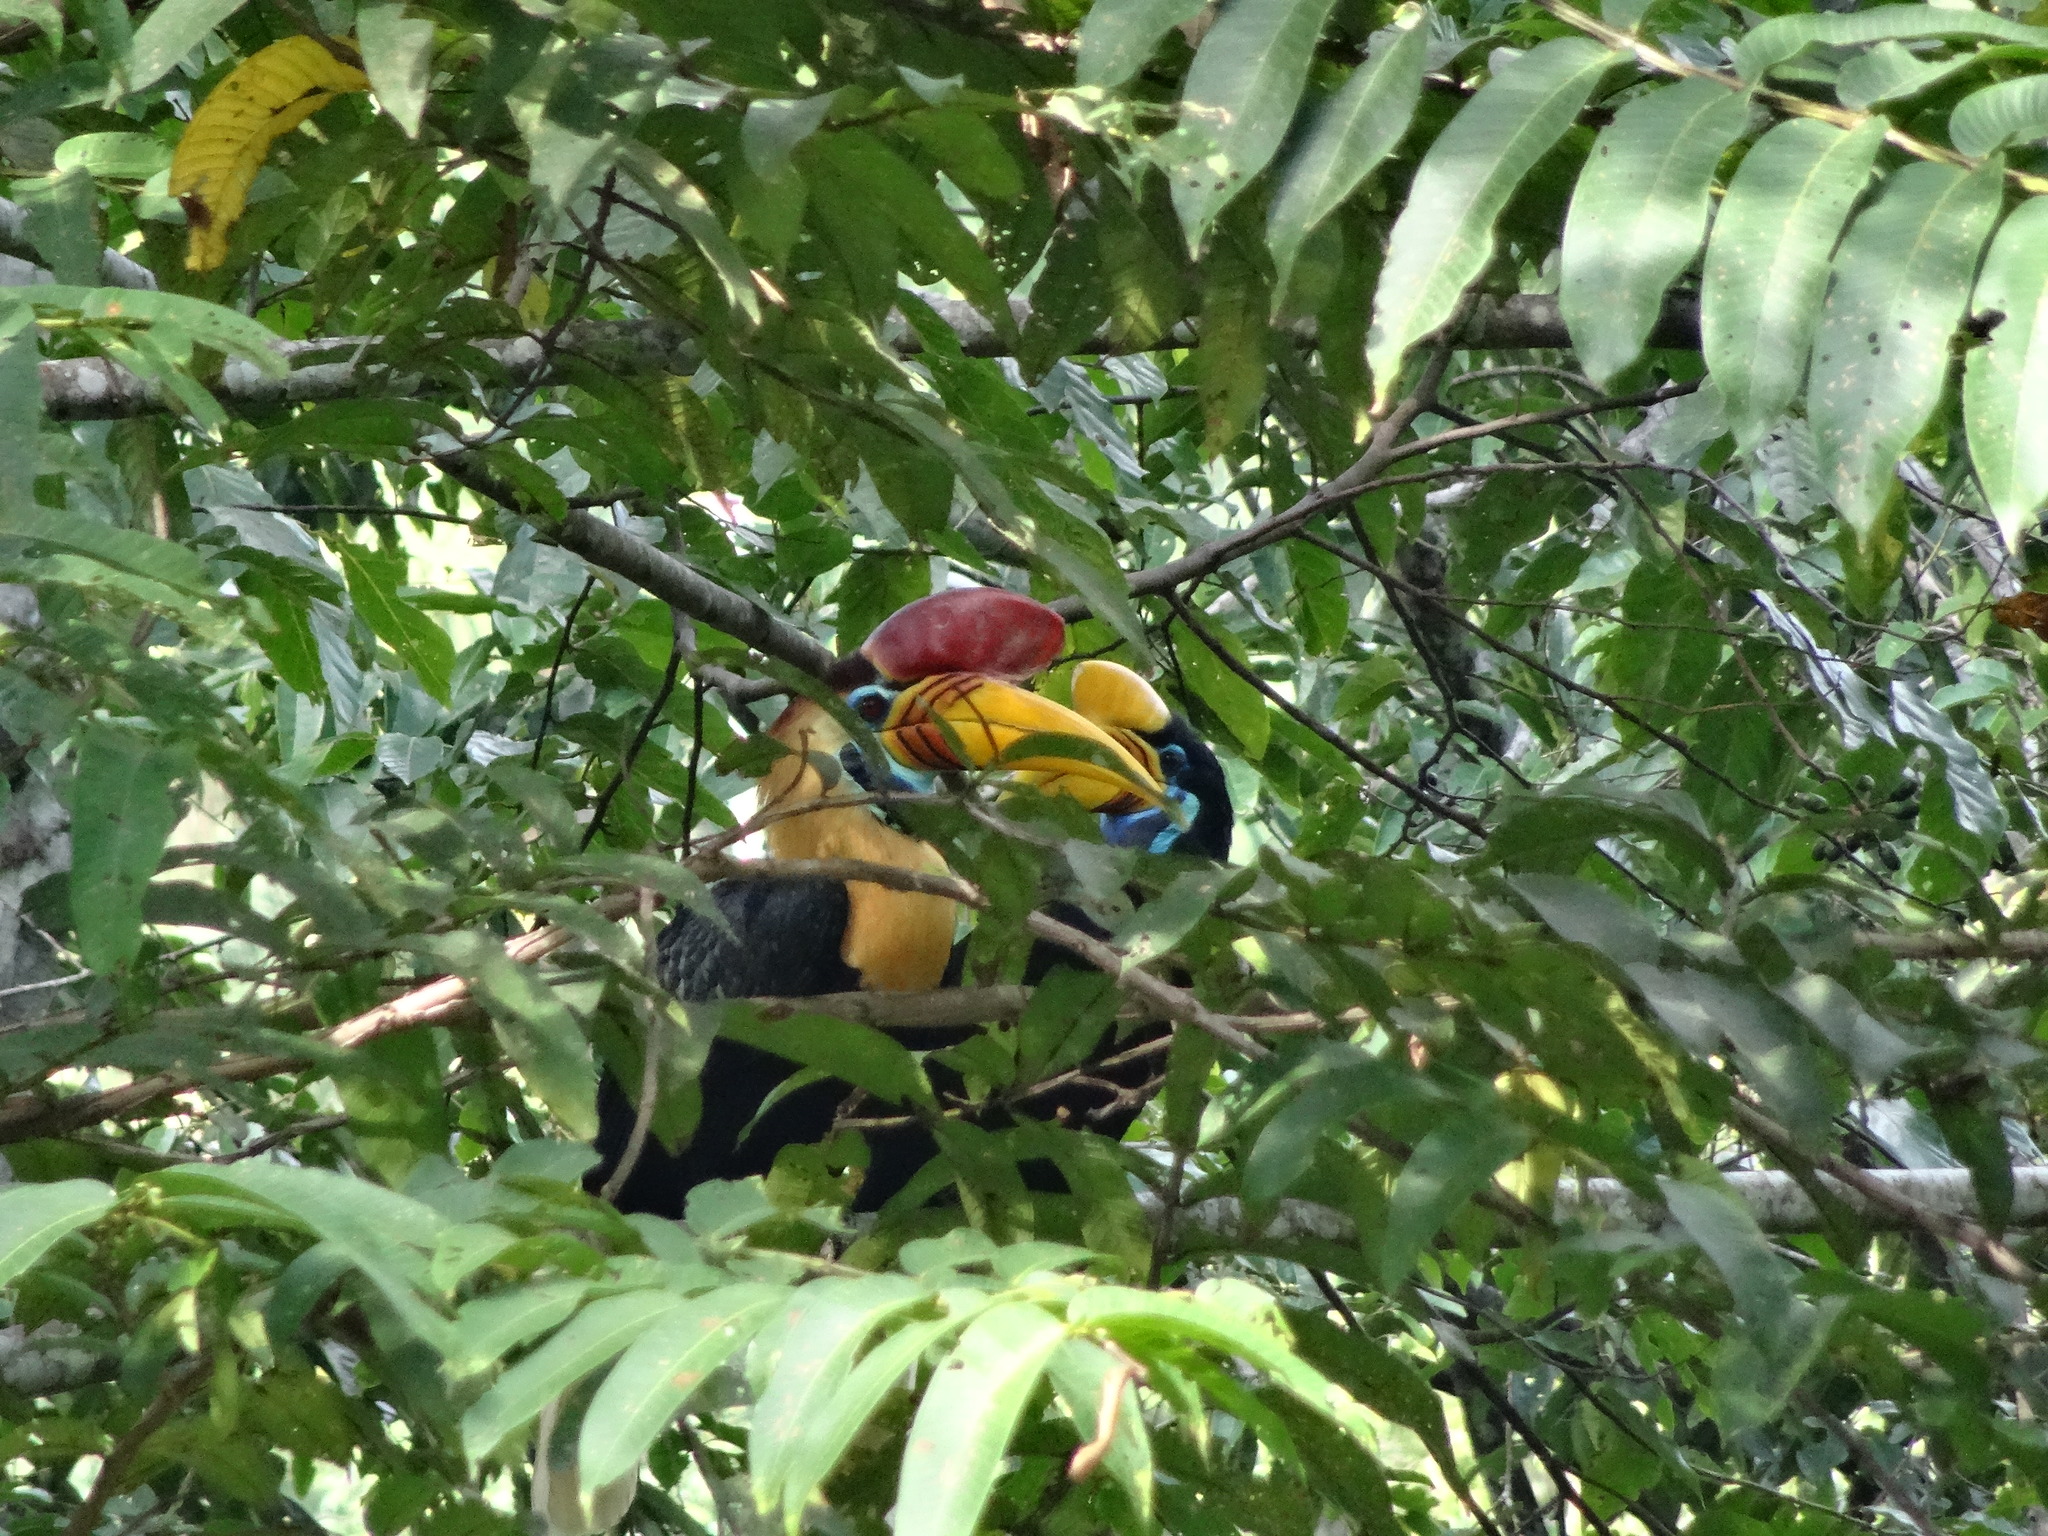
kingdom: Animalia
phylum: Chordata
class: Aves
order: Bucerotiformes
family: Bucerotidae
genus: Rhyticeros
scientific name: Rhyticeros cassidix
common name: Knobbed hornbill
